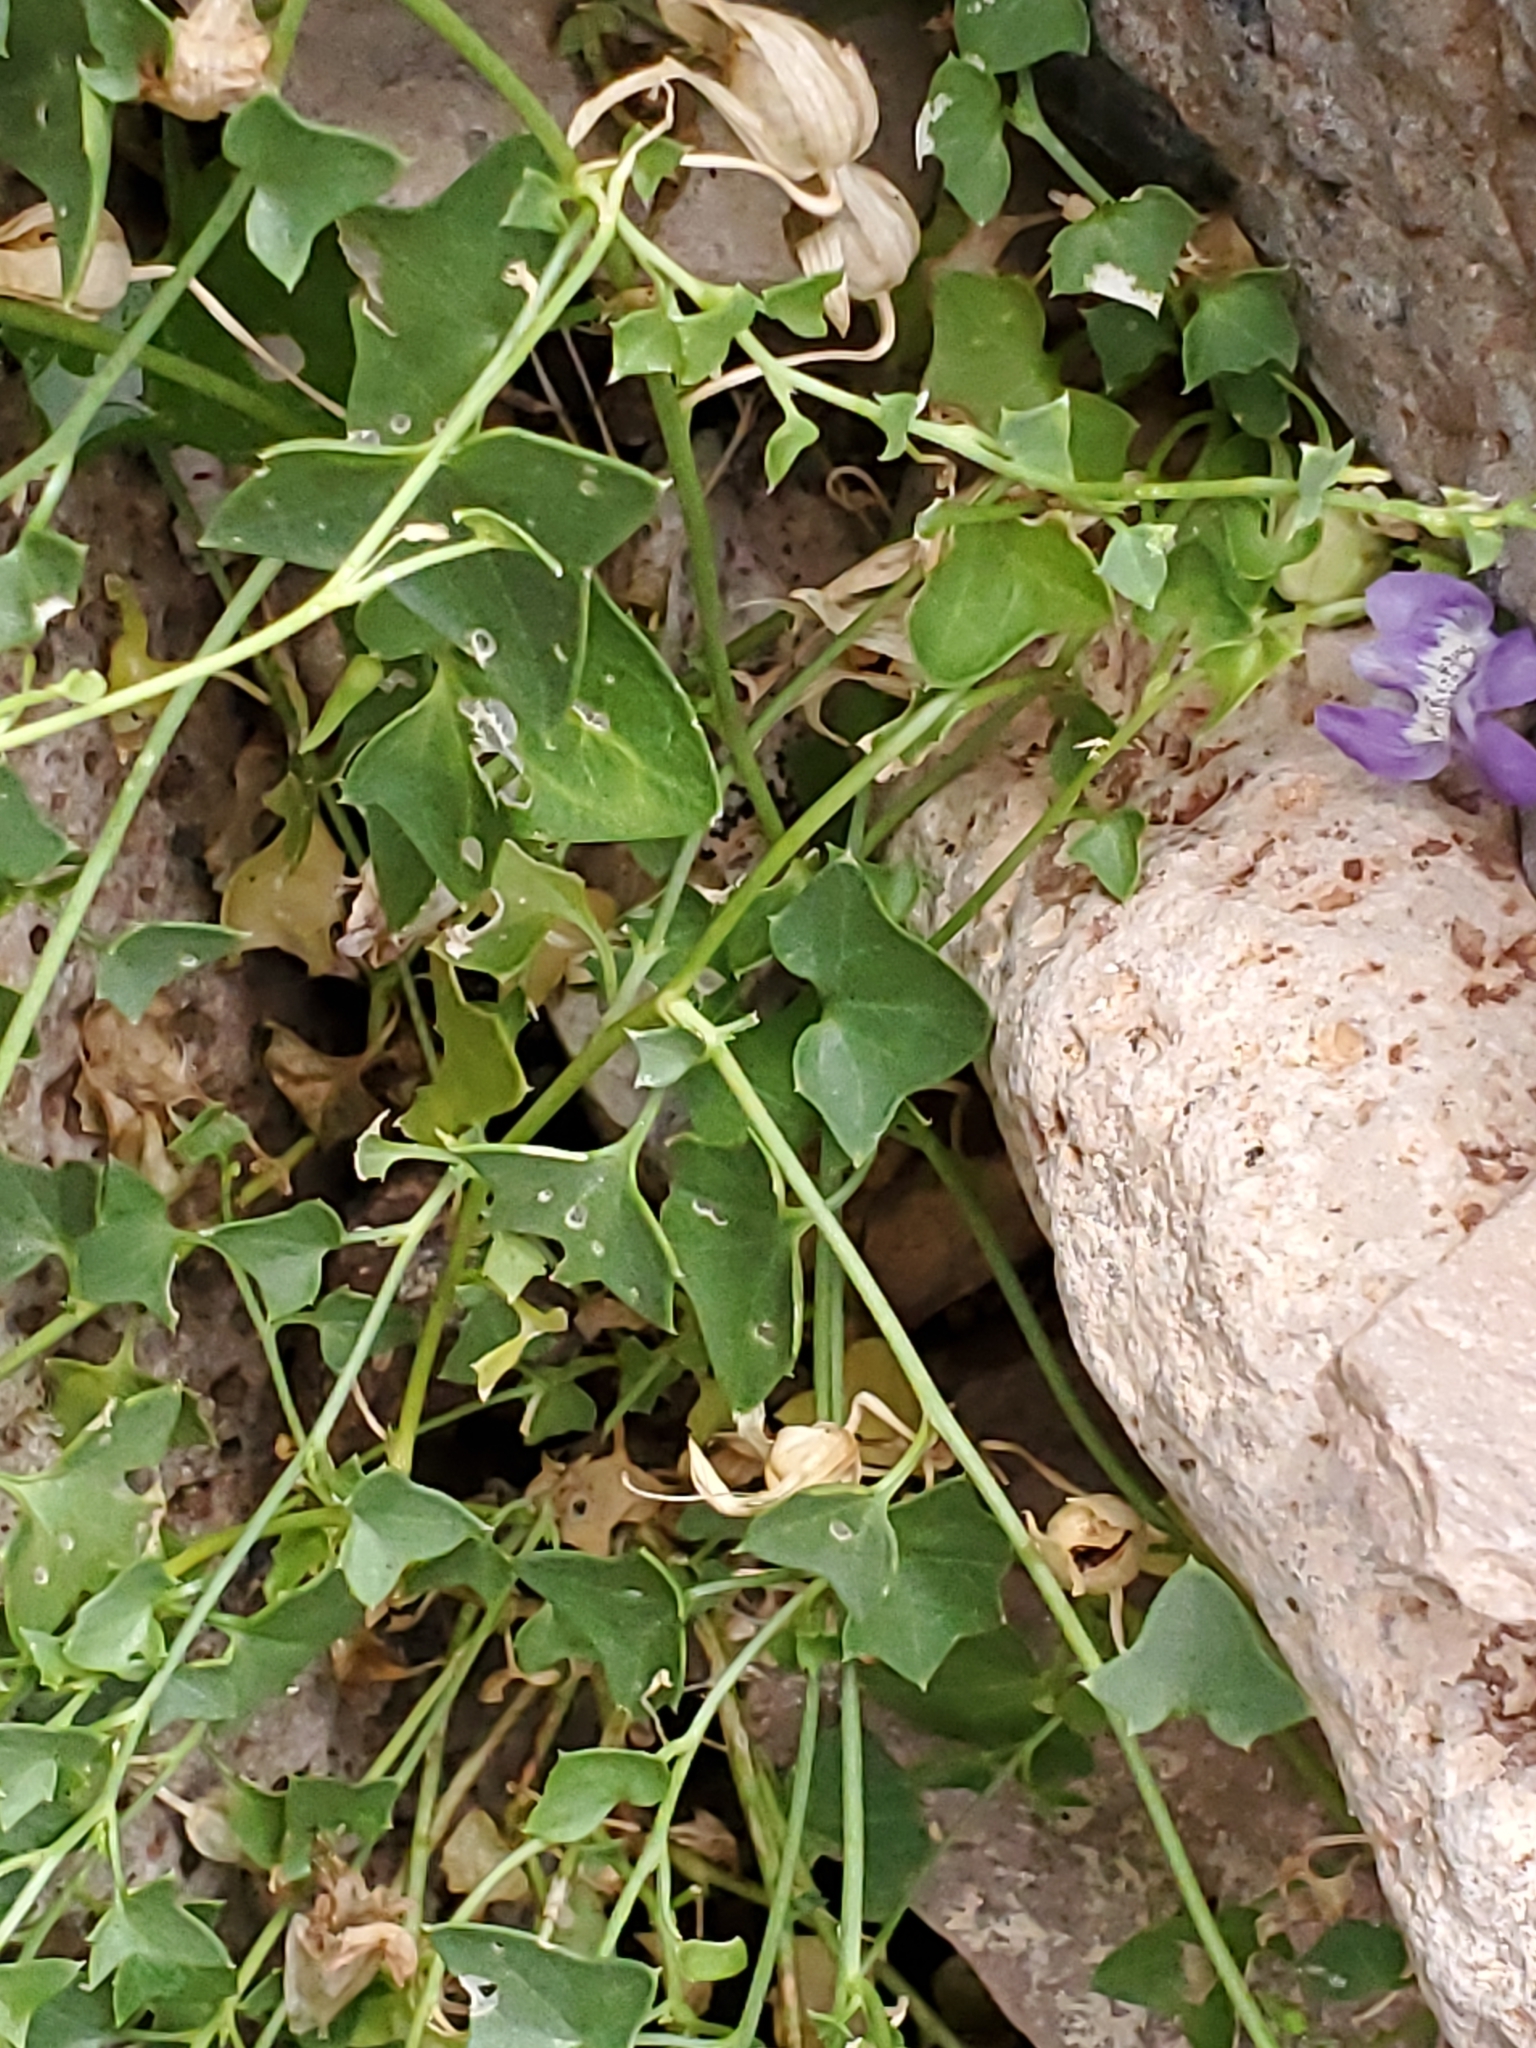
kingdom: Plantae
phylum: Tracheophyta
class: Magnoliopsida
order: Lamiales
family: Plantaginaceae
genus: Maurandella
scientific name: Maurandella antirrhiniflora
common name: Violet twining-snapdragon
